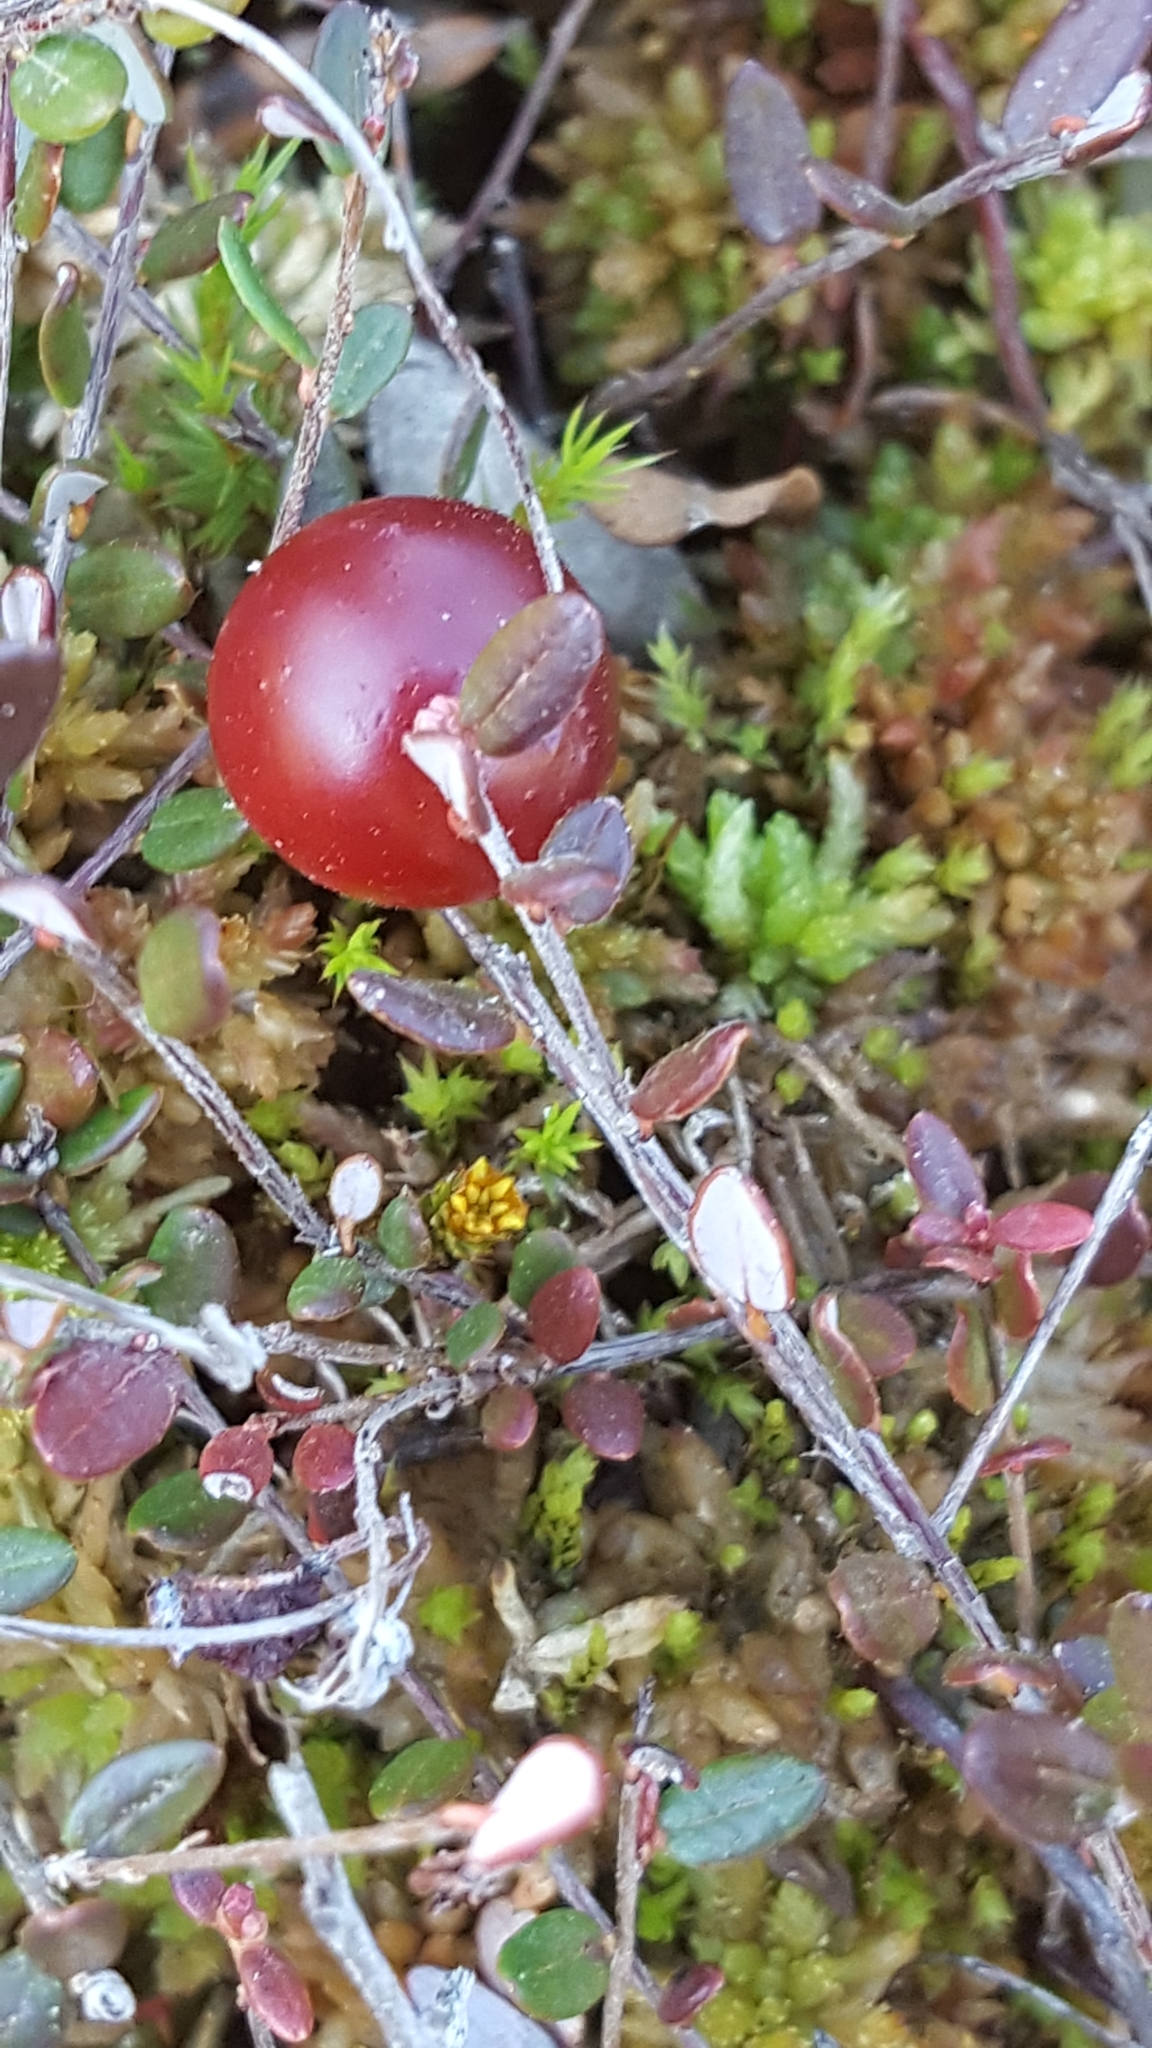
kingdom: Plantae
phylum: Tracheophyta
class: Magnoliopsida
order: Ericales
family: Ericaceae
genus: Vaccinium
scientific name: Vaccinium oxycoccos
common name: Cranberry
